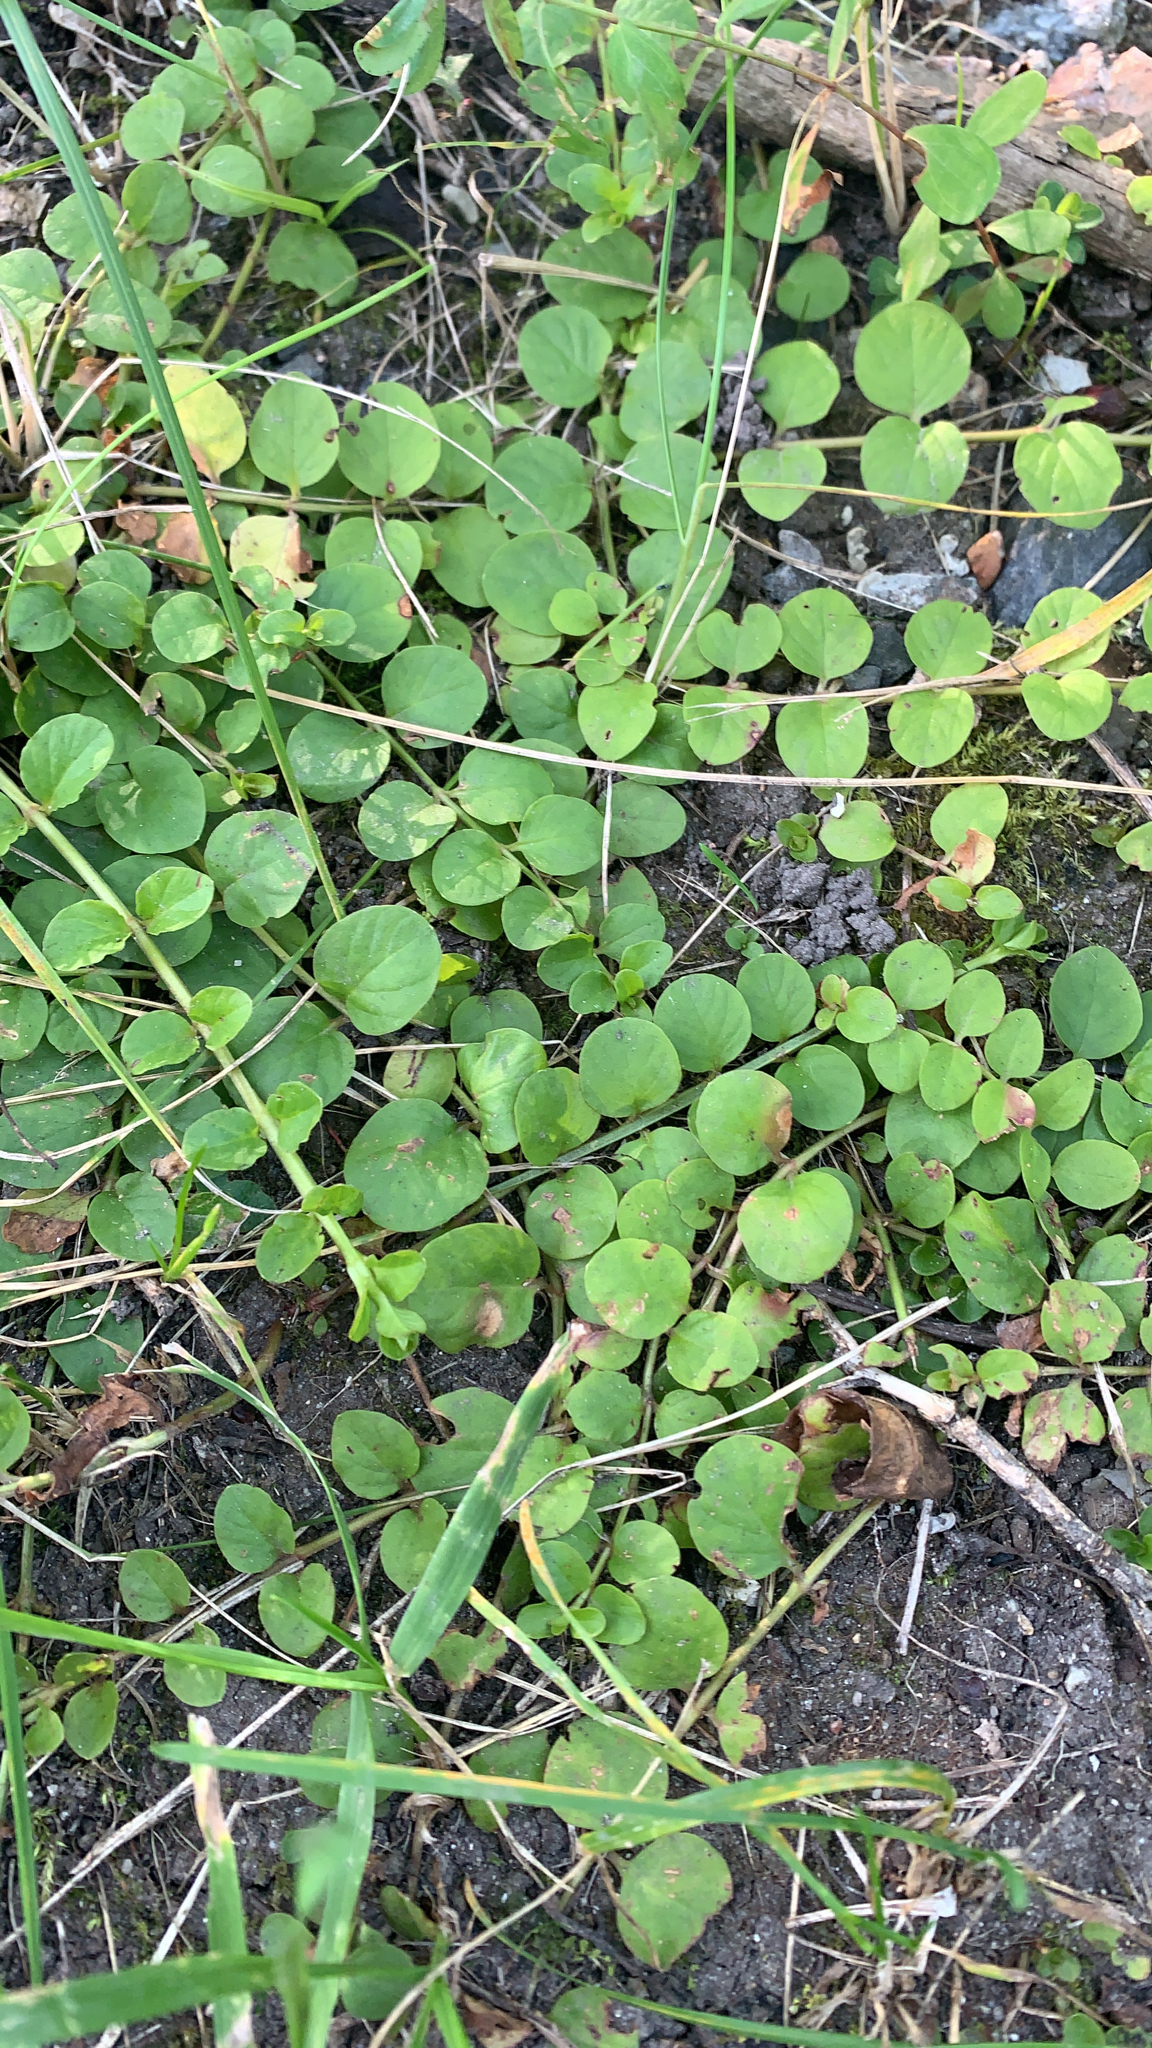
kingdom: Plantae
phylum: Tracheophyta
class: Magnoliopsida
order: Ericales
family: Primulaceae
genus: Lysimachia
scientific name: Lysimachia nummularia
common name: Moneywort
